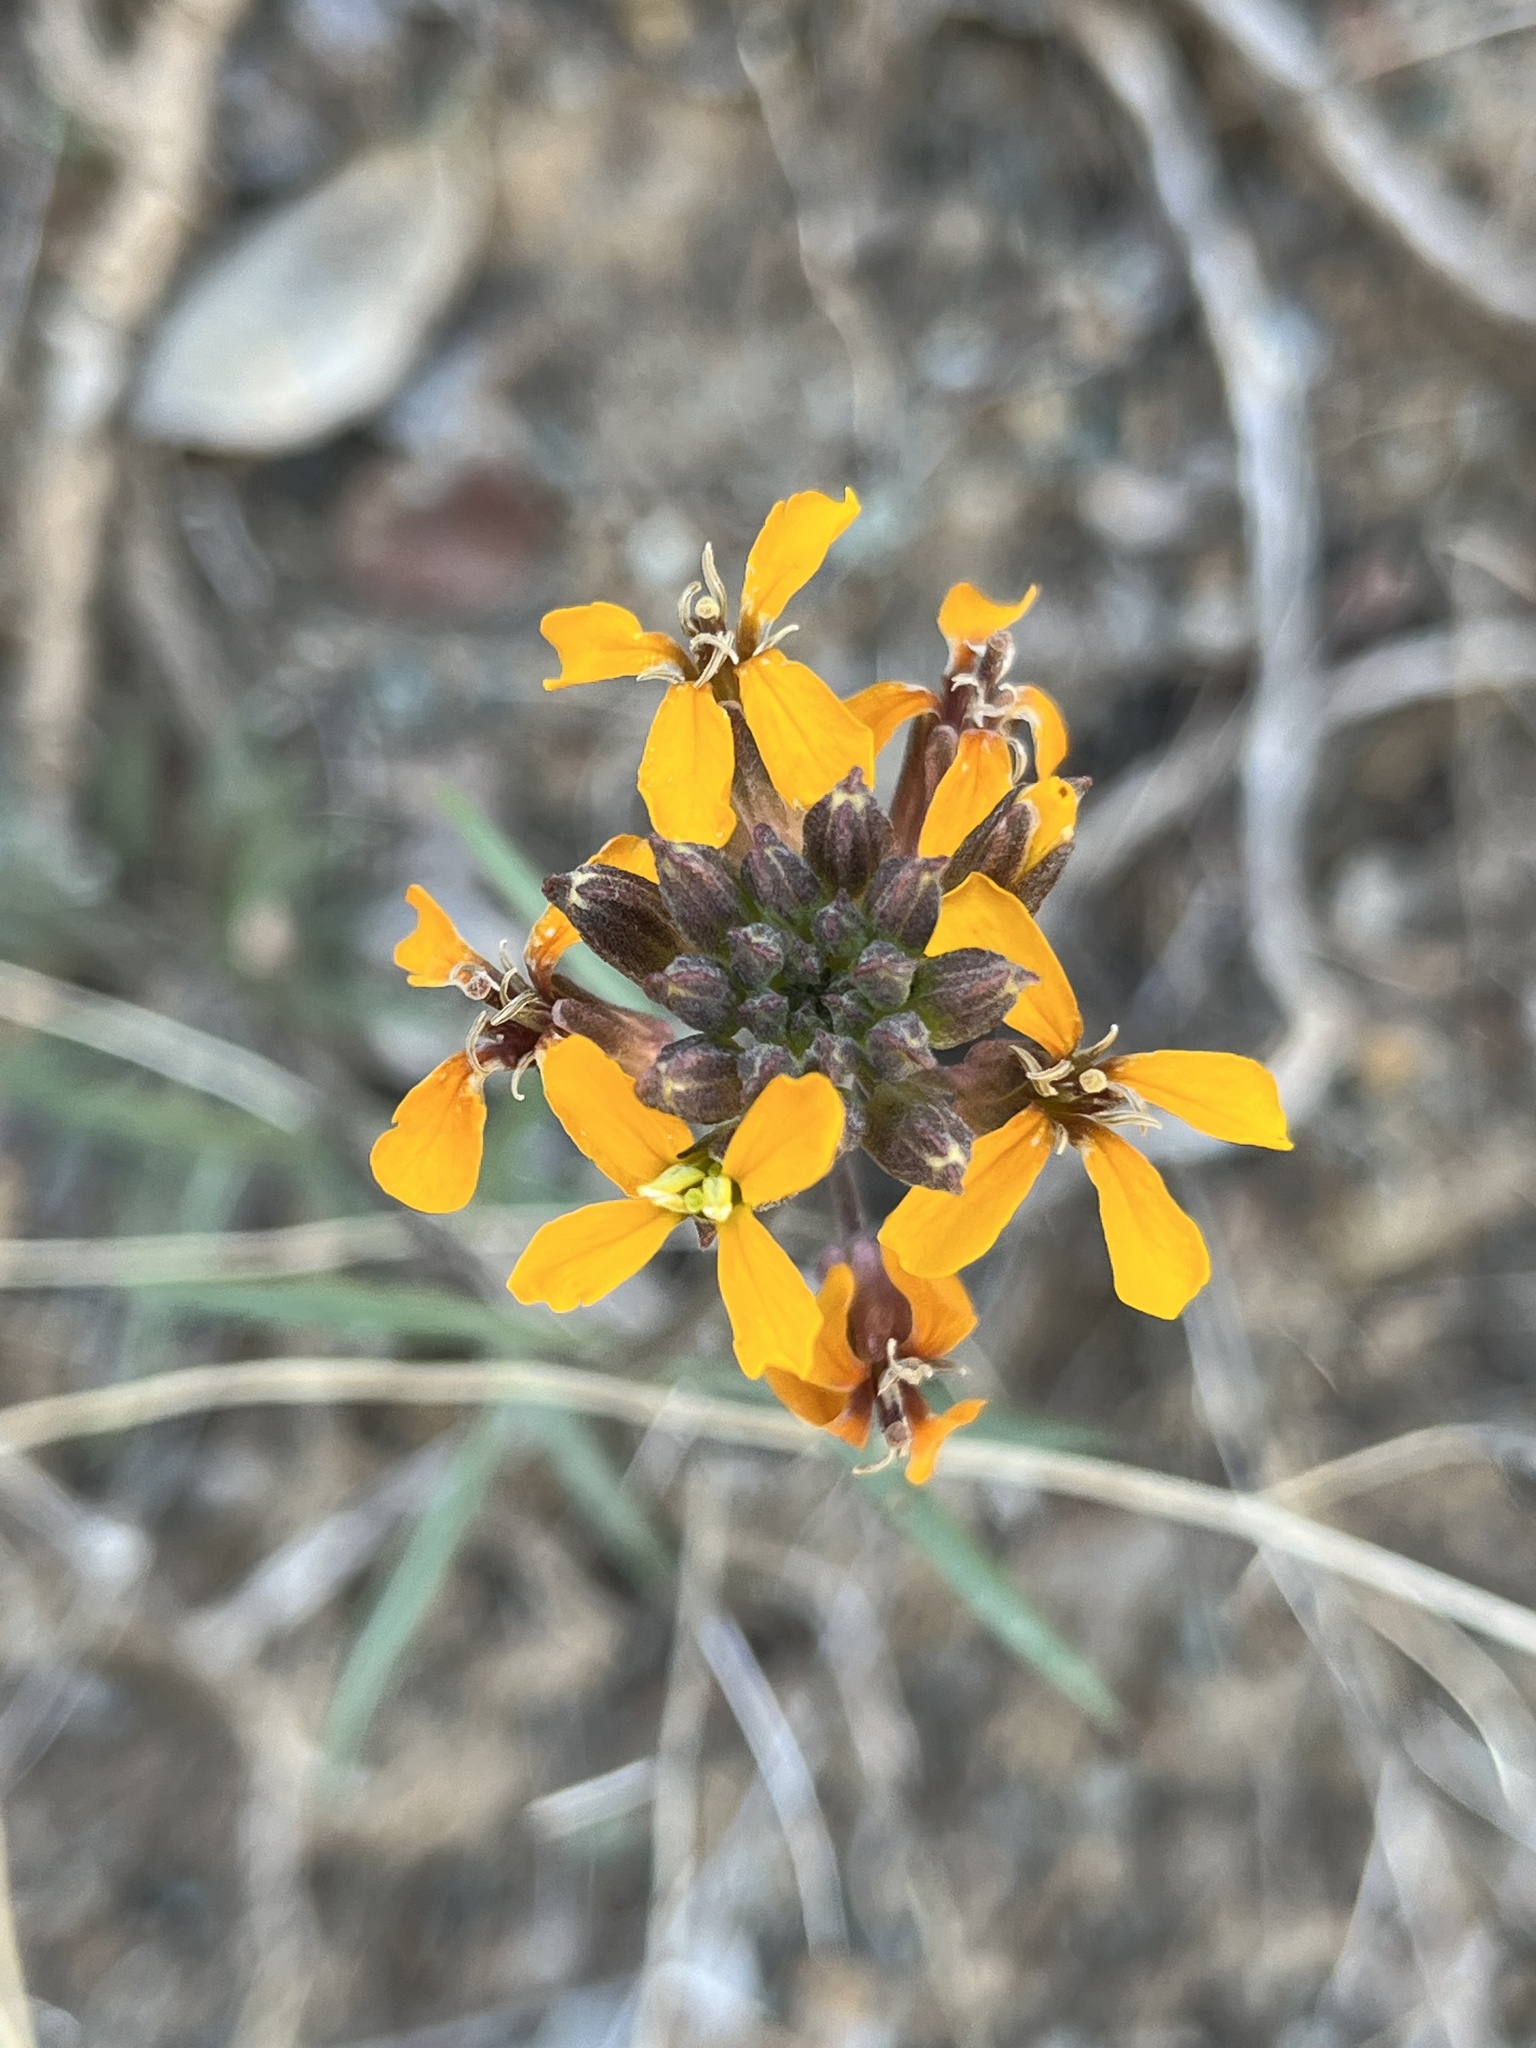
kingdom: Plantae
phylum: Tracheophyta
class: Magnoliopsida
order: Brassicales
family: Brassicaceae
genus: Erysimum
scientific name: Erysimum capitatum
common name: Western wallflower
